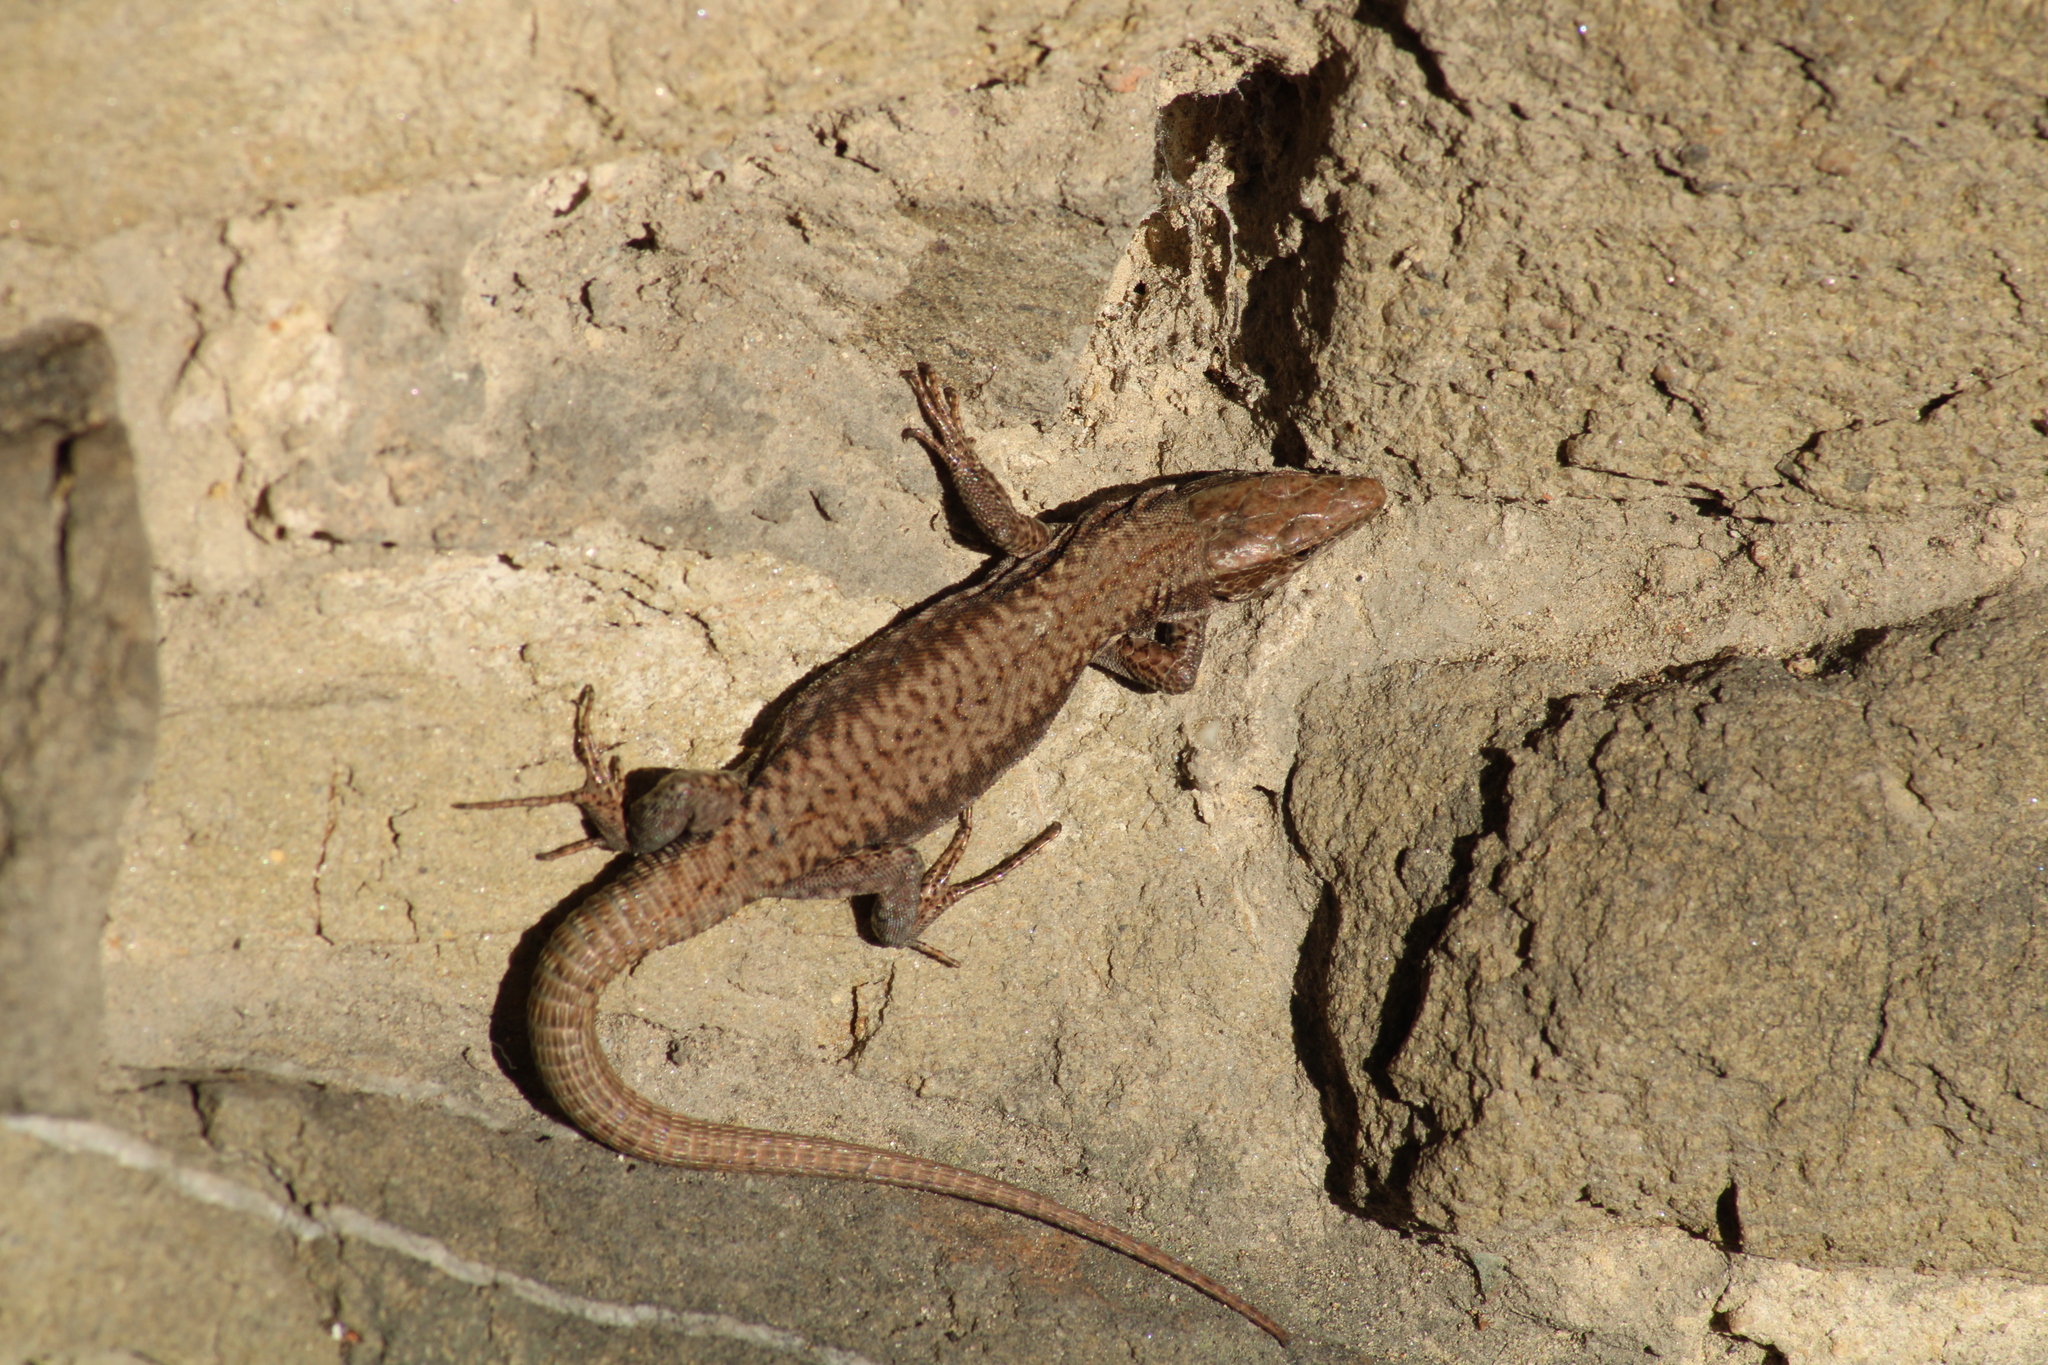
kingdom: Animalia
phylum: Chordata
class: Squamata
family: Lacertidae
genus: Podarcis
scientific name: Podarcis muralis
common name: Common wall lizard
